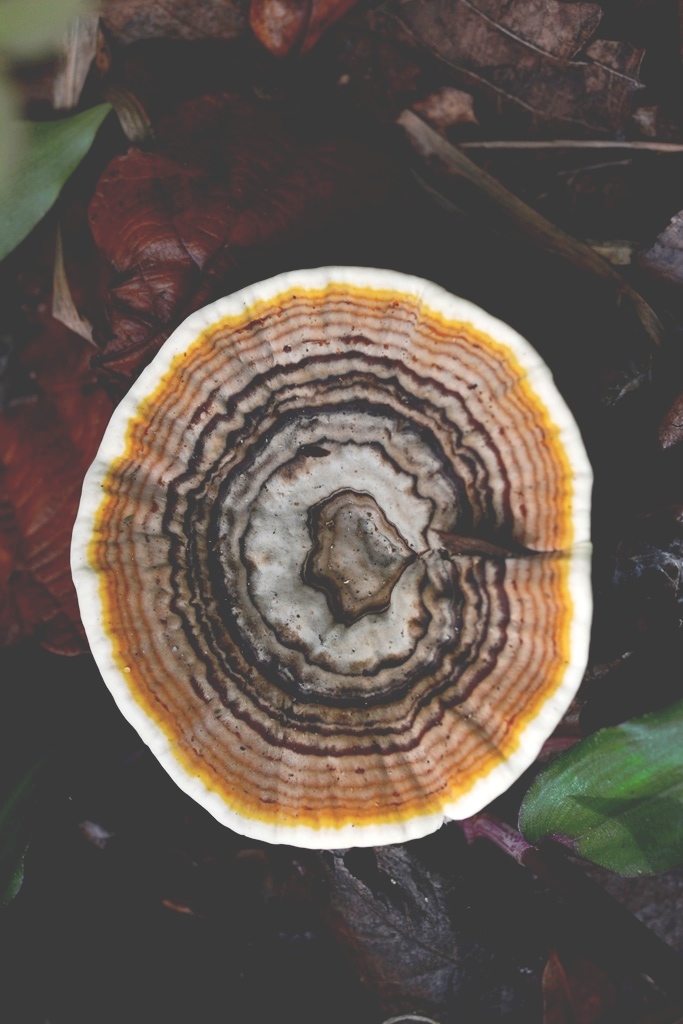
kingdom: Fungi
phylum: Basidiomycota
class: Agaricomycetes
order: Polyporales
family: Ganodermataceae
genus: Sanguinoderma
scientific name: Sanguinoderma rude
